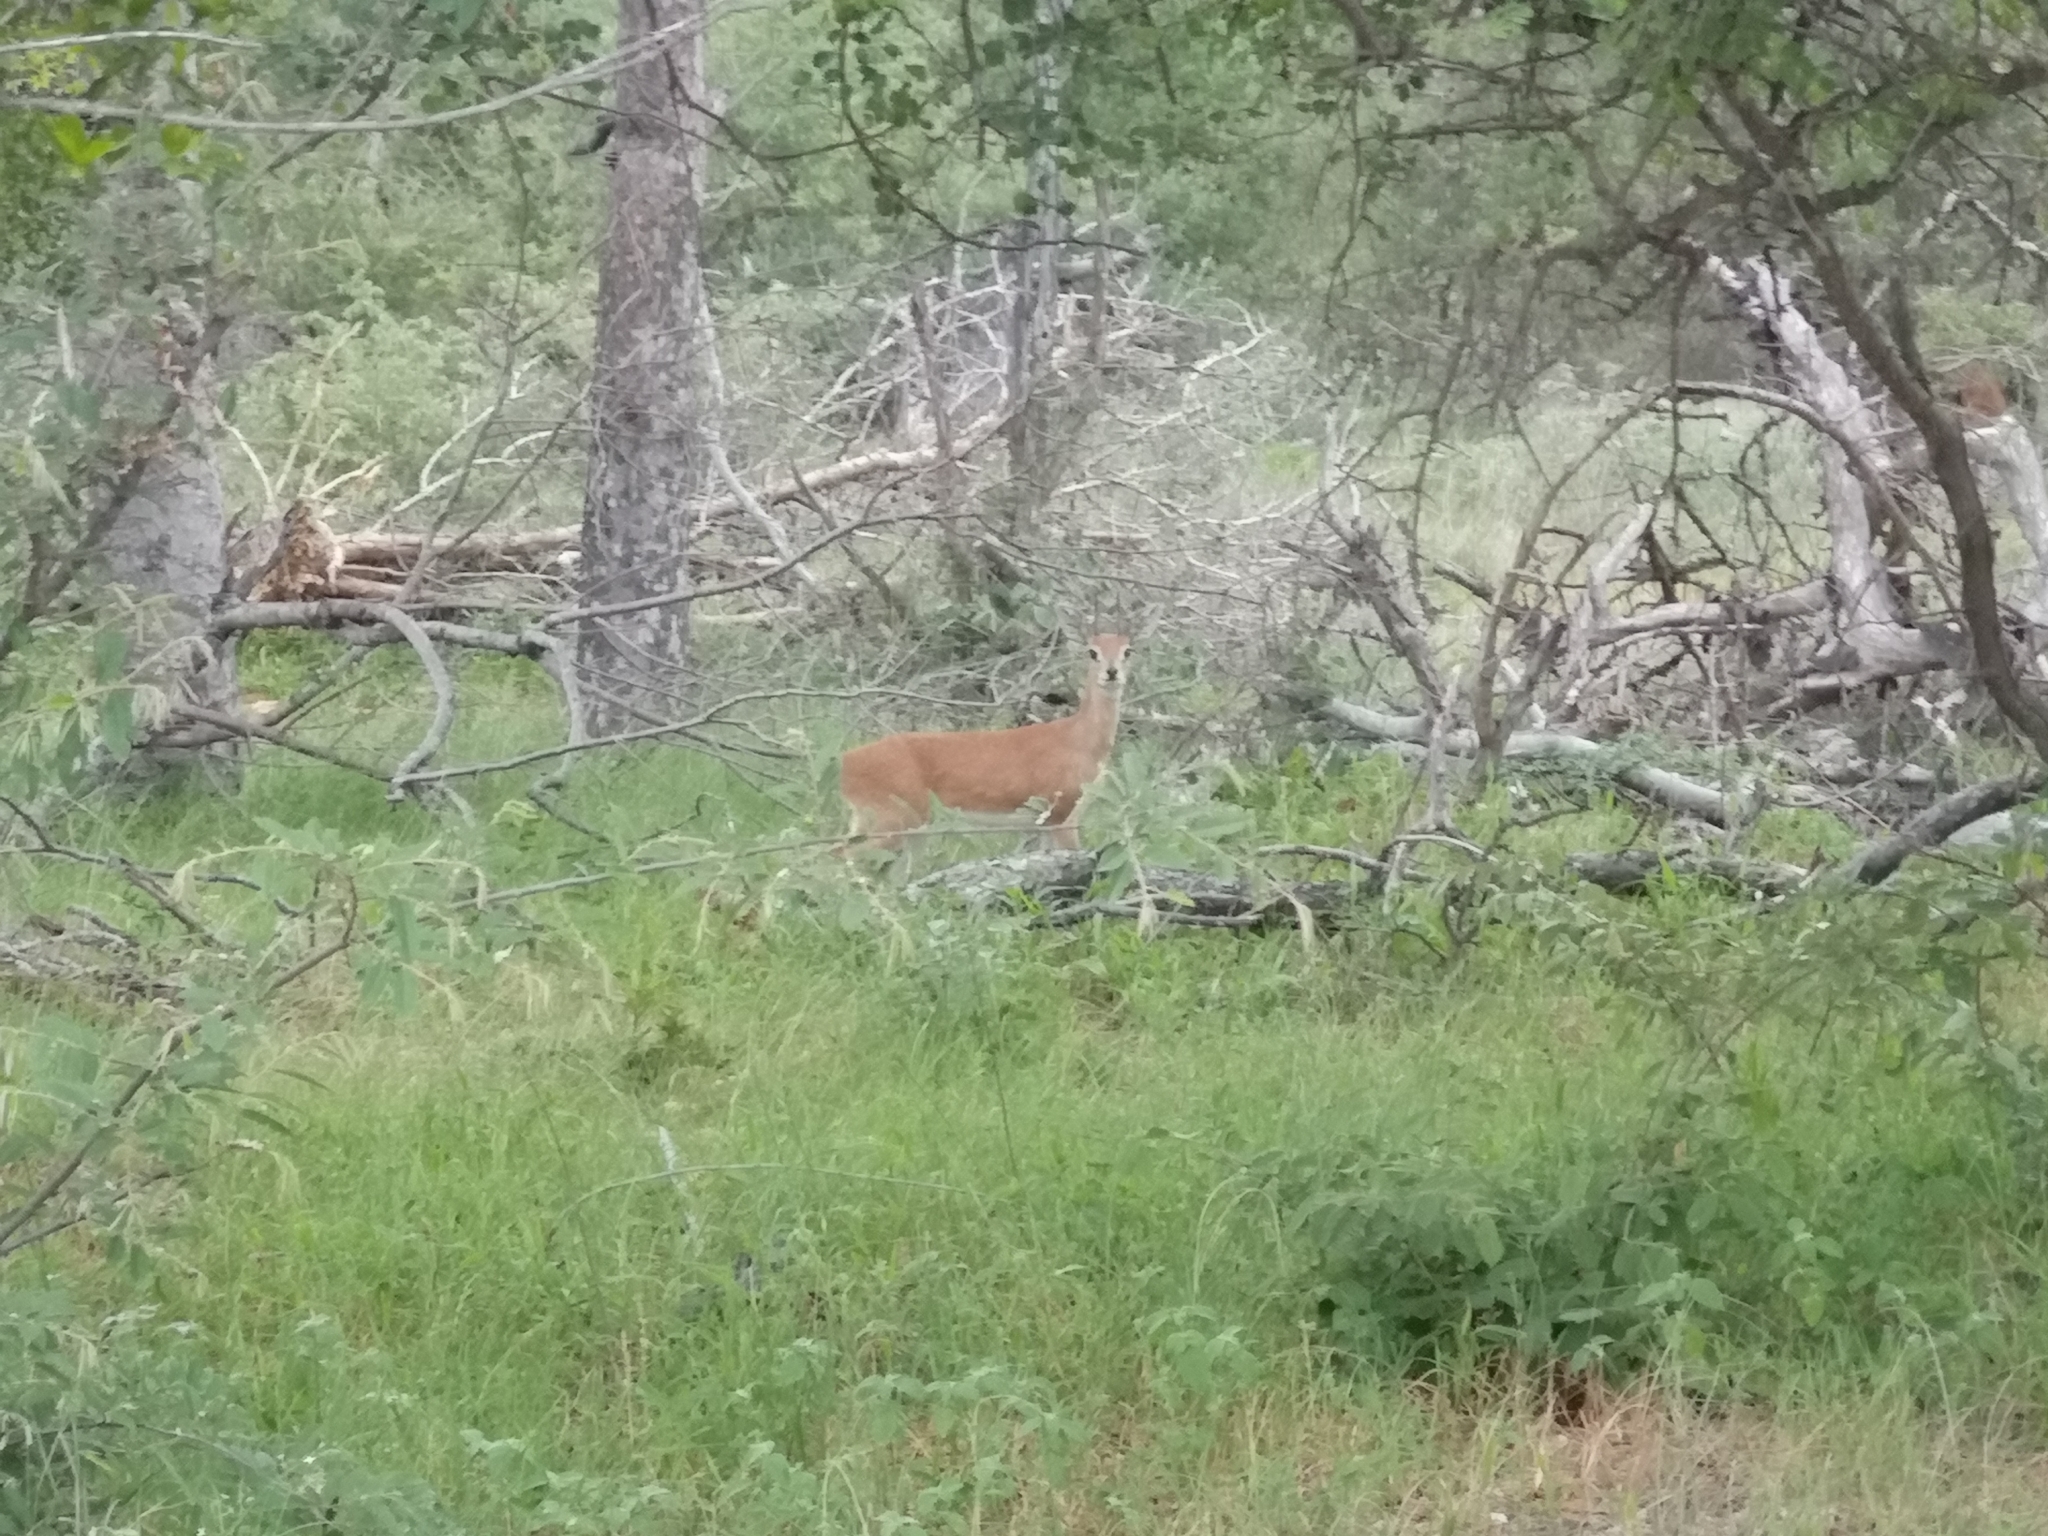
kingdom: Animalia
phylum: Chordata
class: Mammalia
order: Artiodactyla
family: Bovidae
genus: Raphicerus
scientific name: Raphicerus campestris
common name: Steenbok
